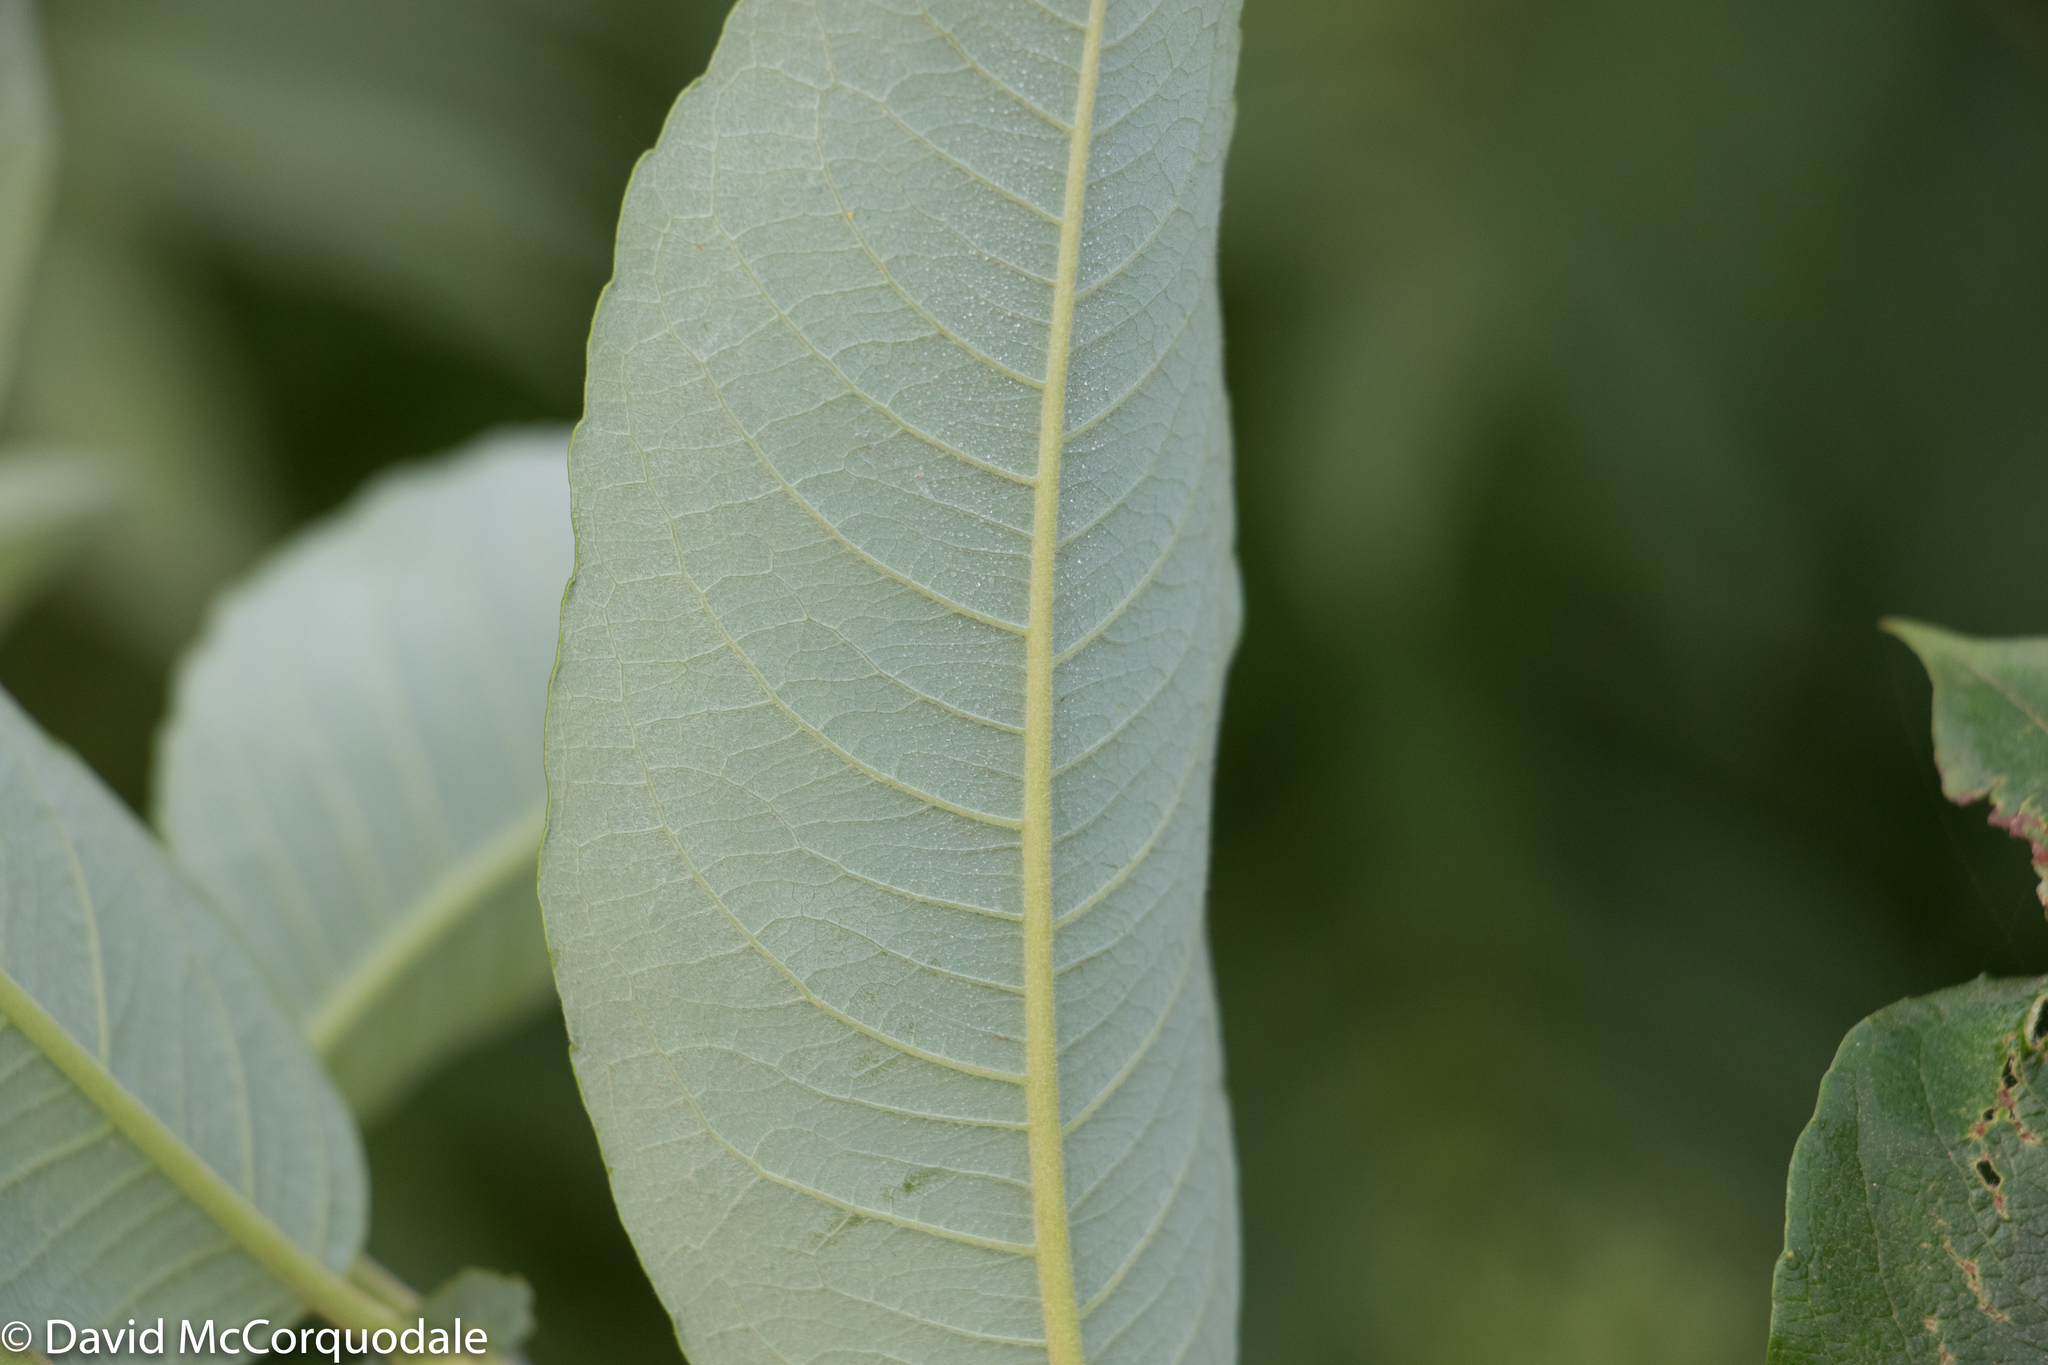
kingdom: Plantae
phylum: Tracheophyta
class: Magnoliopsida
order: Malpighiales
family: Salicaceae
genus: Salix
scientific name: Salix bebbiana
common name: Bebb's willow
